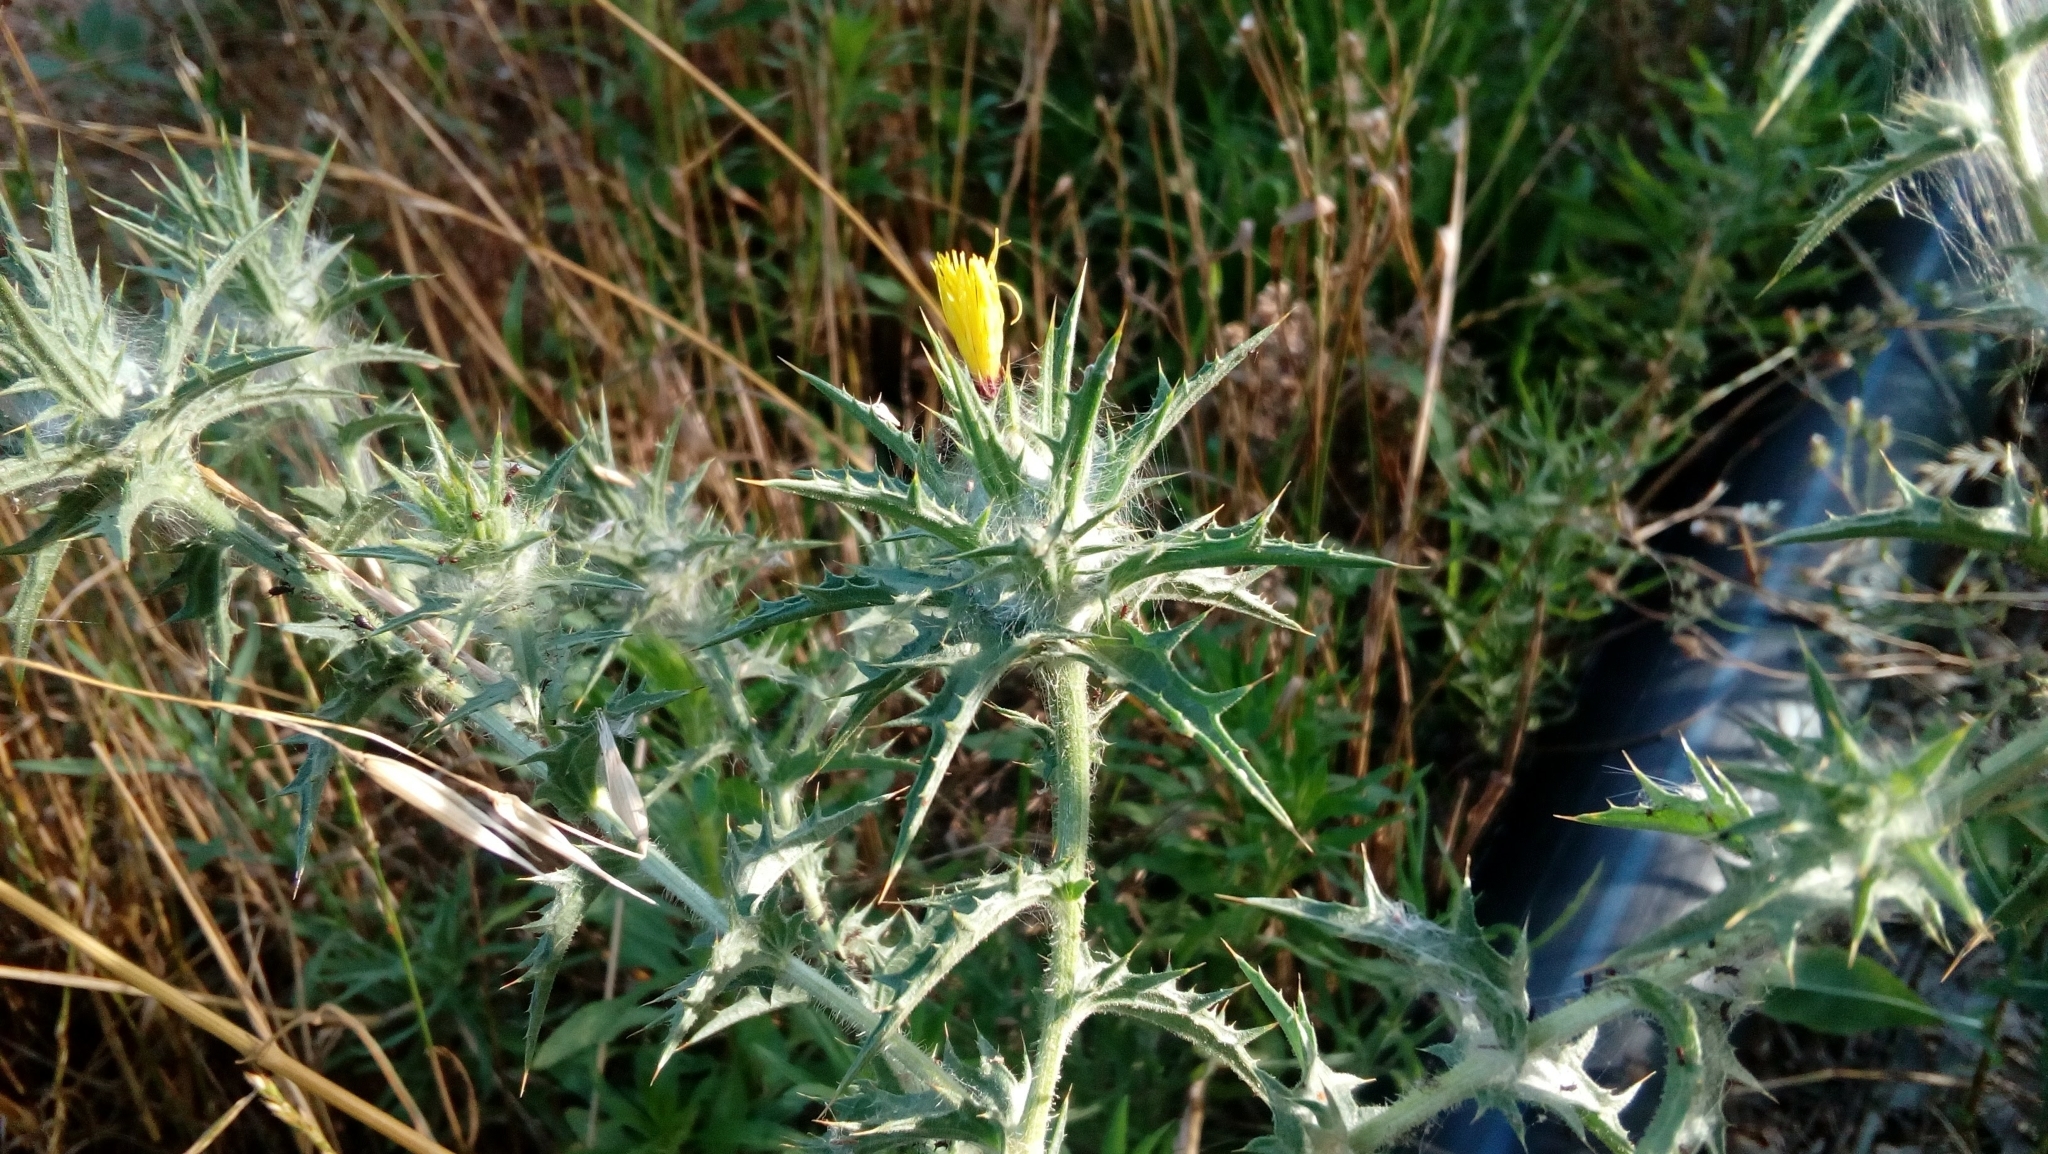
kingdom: Plantae
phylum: Tracheophyta
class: Magnoliopsida
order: Asterales
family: Asteraceae
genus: Carthamus
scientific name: Carthamus lanatus
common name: Downy safflower
